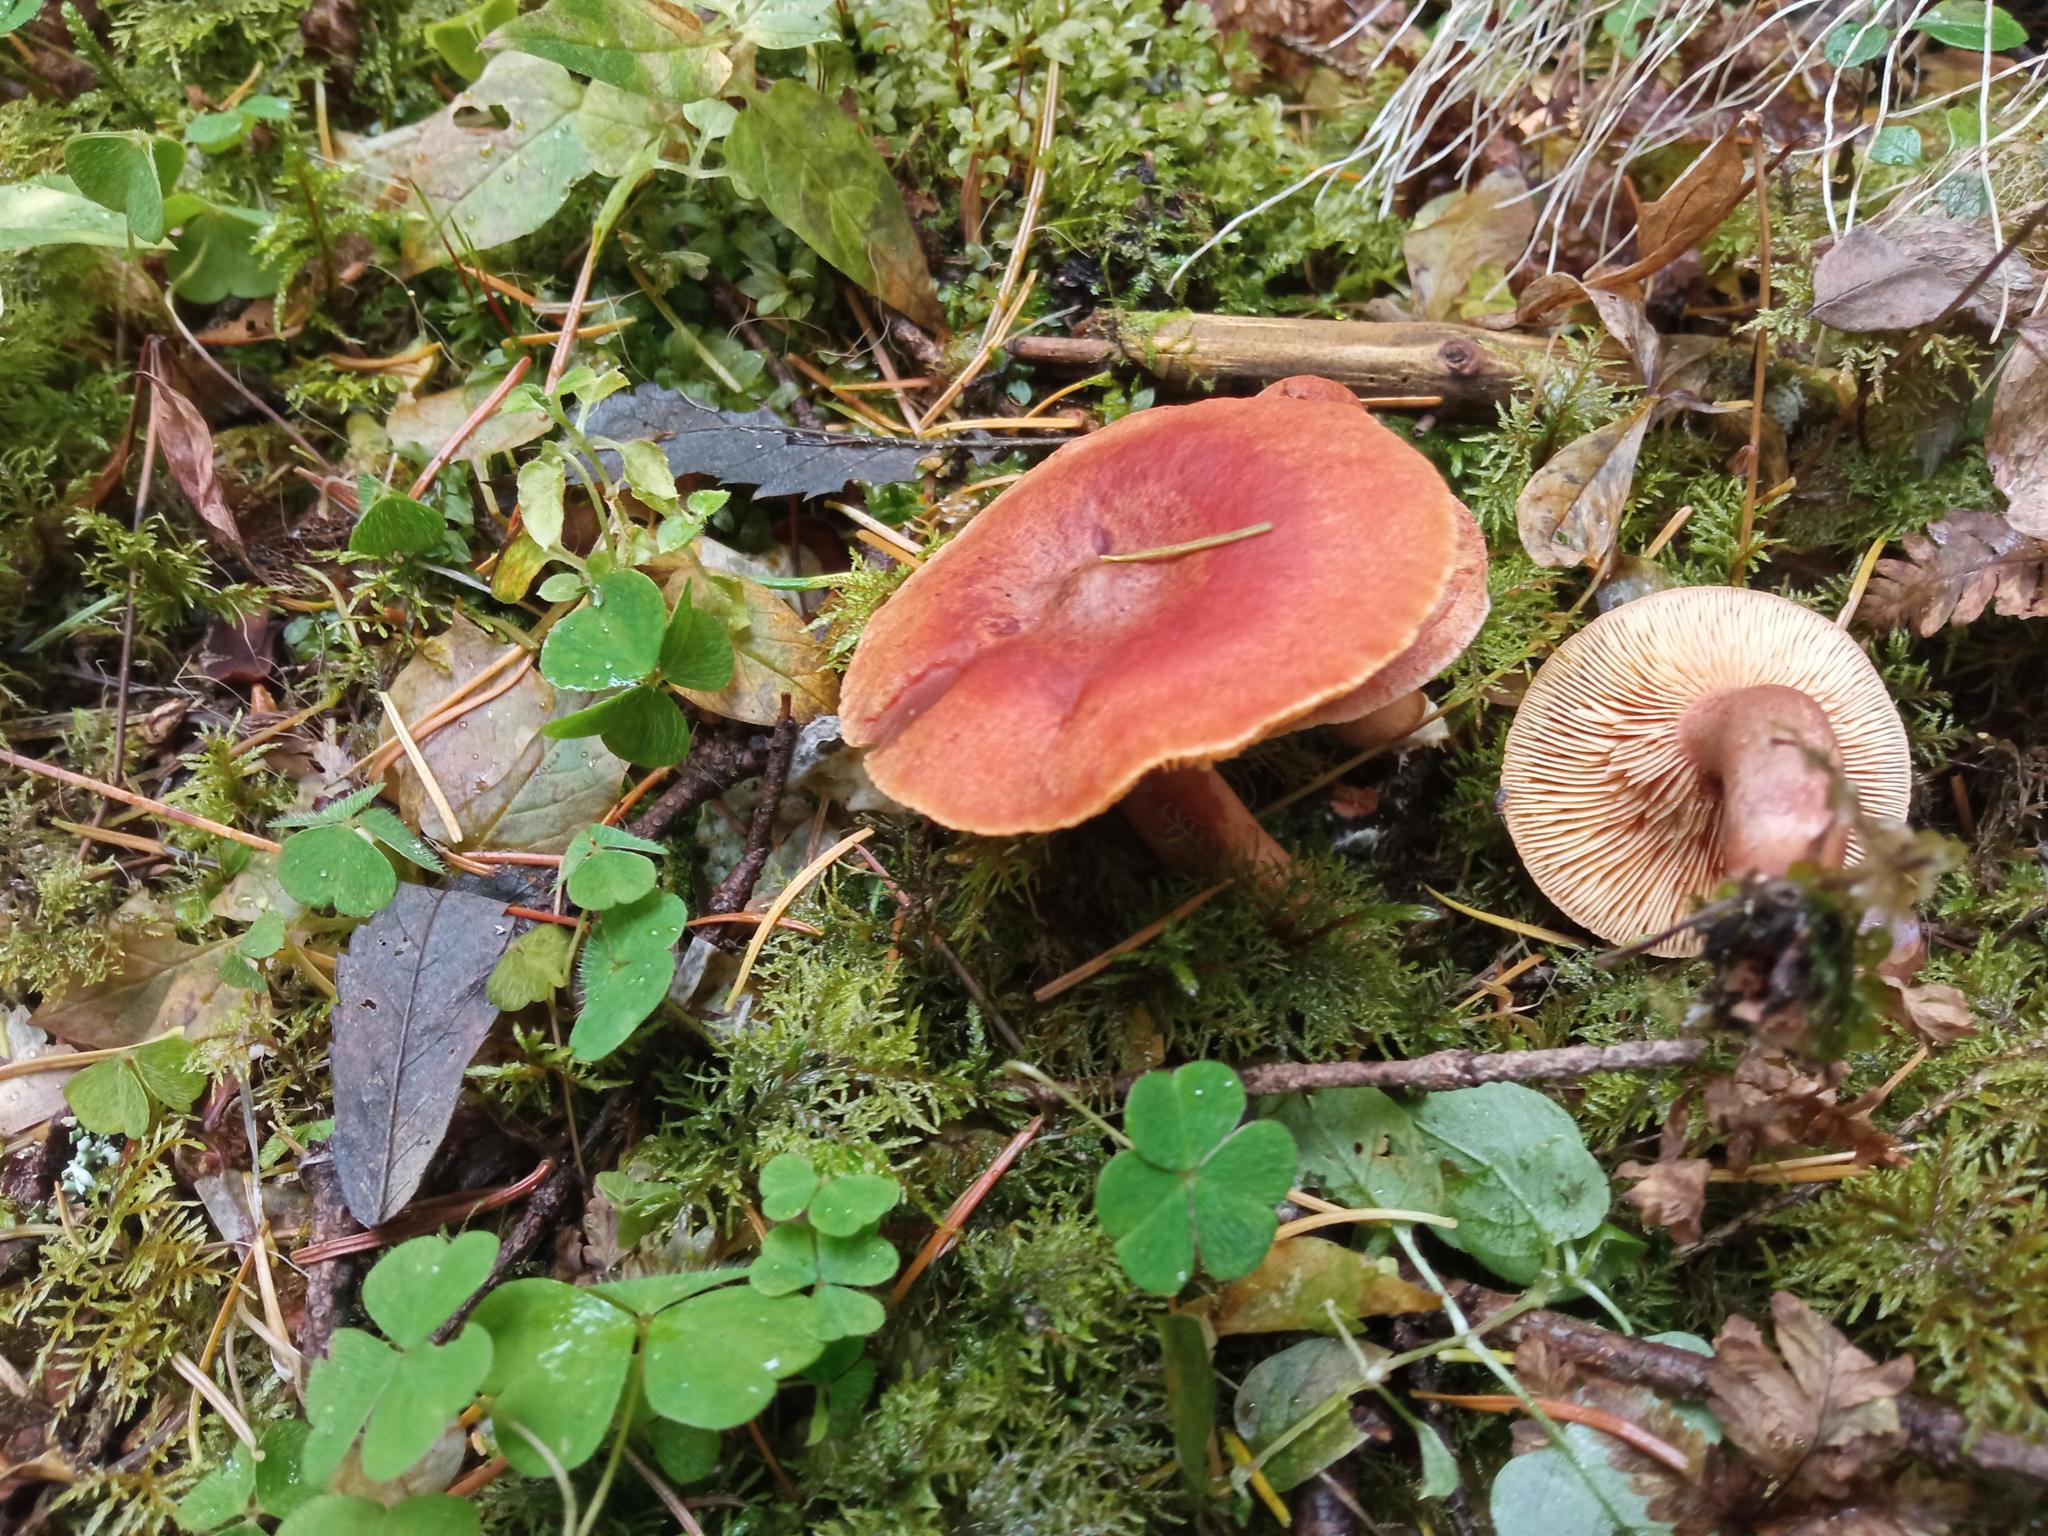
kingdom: Fungi
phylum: Basidiomycota
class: Agaricomycetes
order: Russulales
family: Russulaceae
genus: Lactarius
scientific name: Lactarius rufus
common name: Rufous milk-cap
